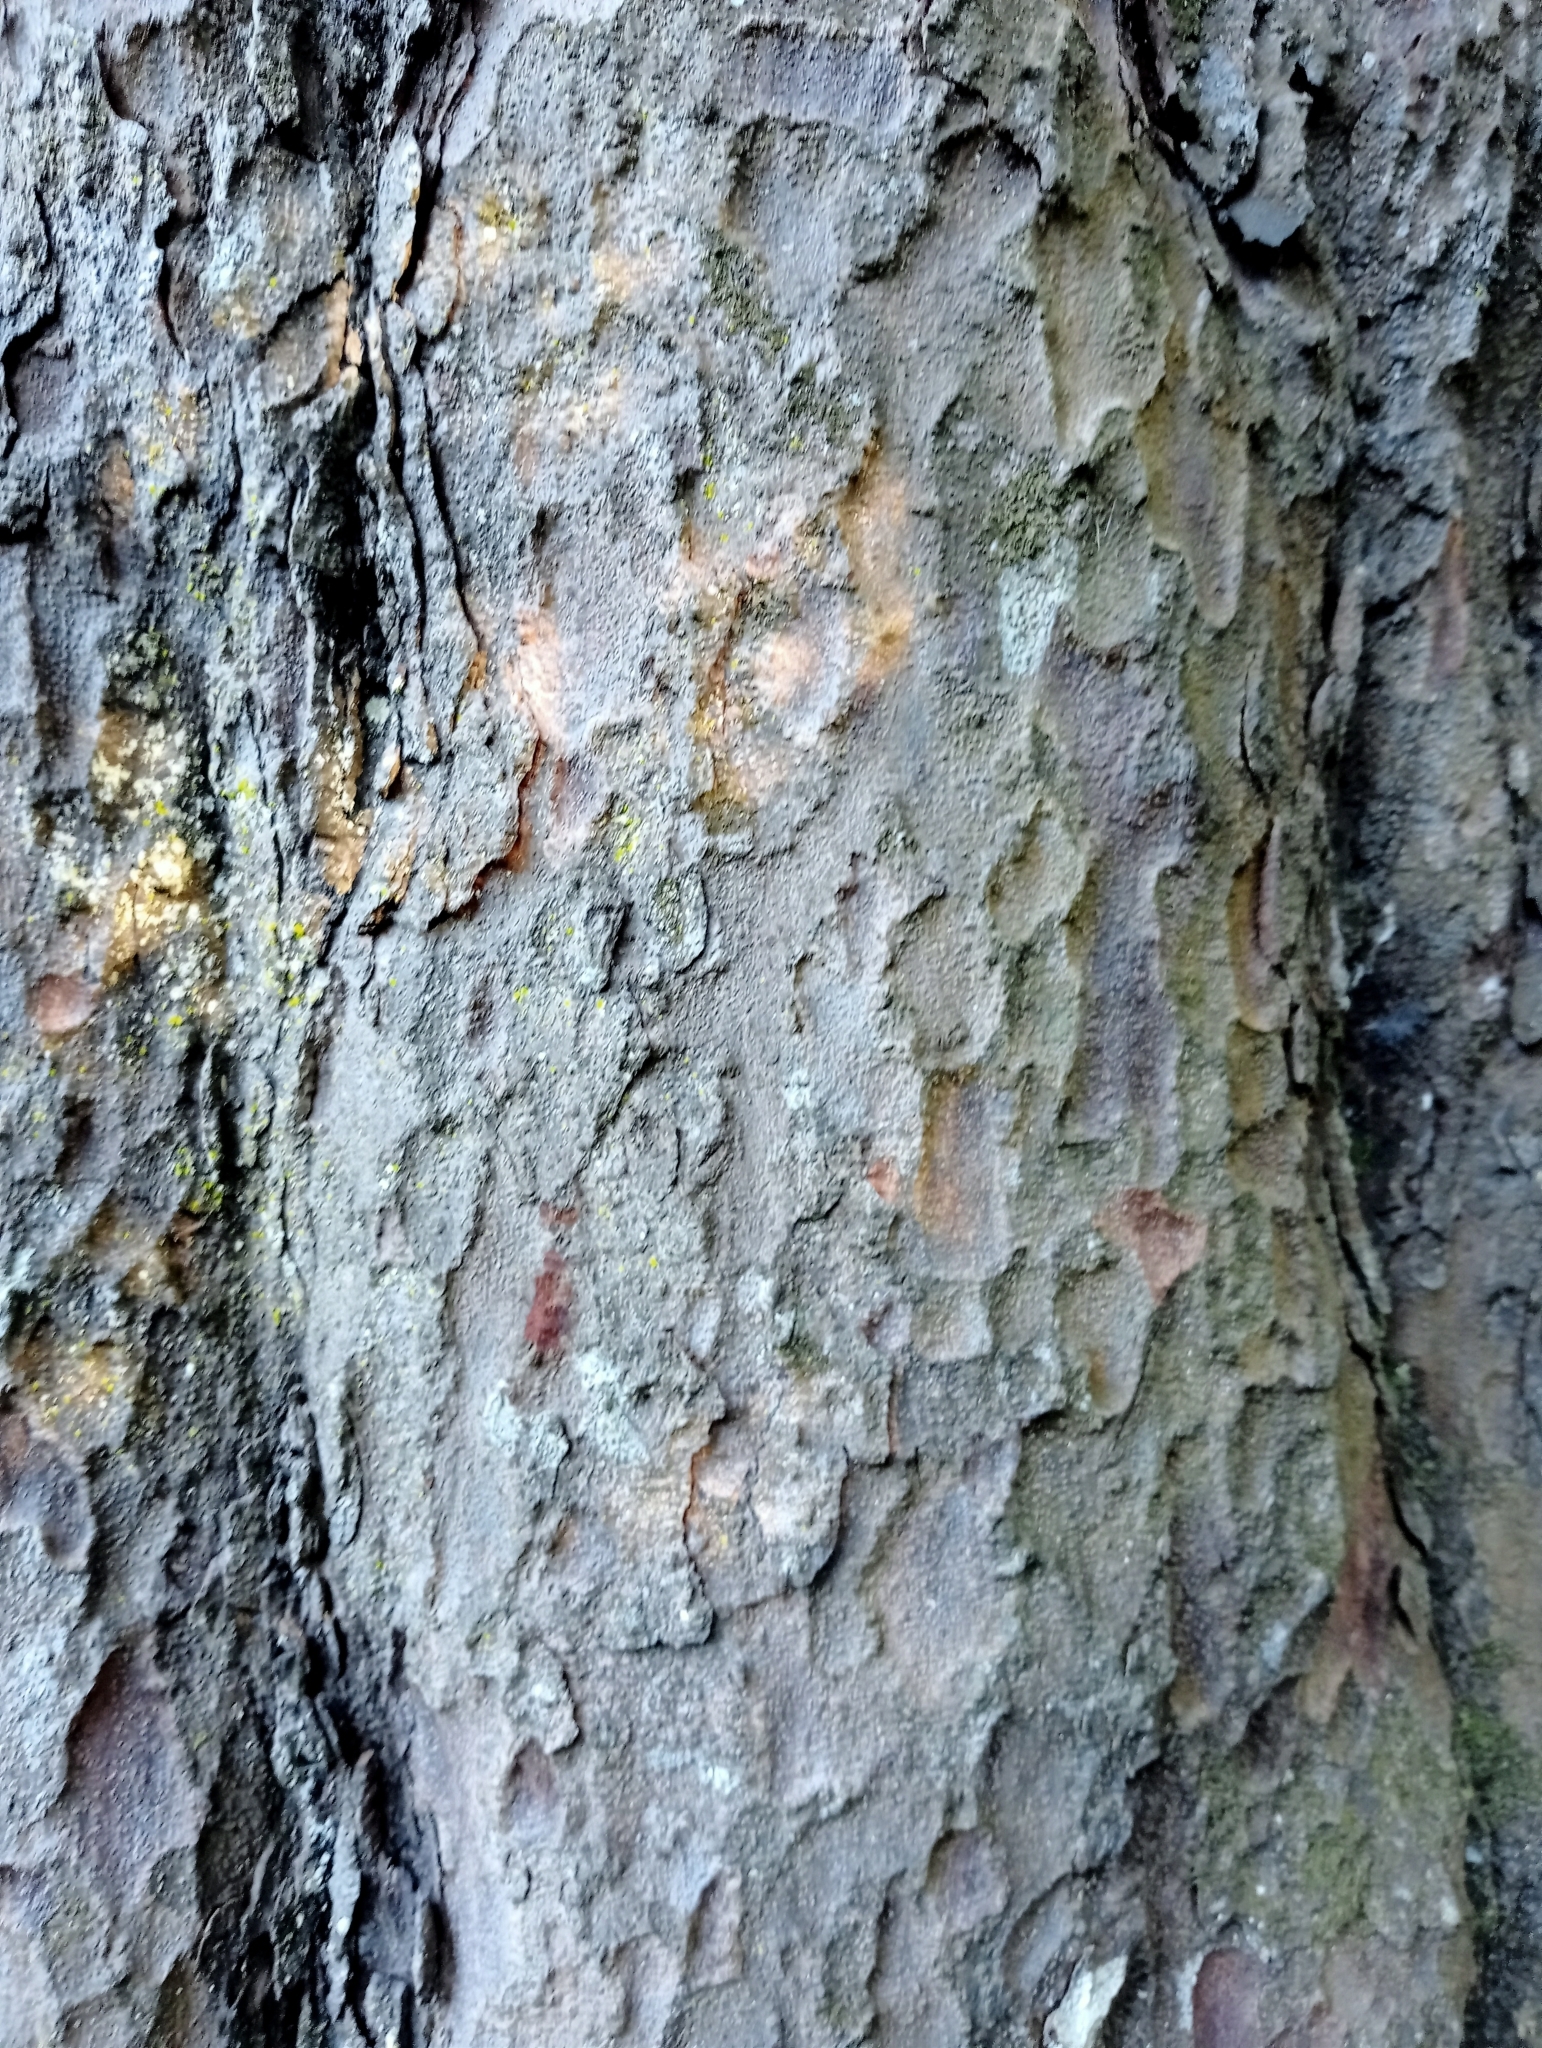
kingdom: Plantae
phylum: Tracheophyta
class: Pinopsida
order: Pinales
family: Podocarpaceae
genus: Prumnopitys
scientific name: Prumnopitys taxifolia
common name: Matai
